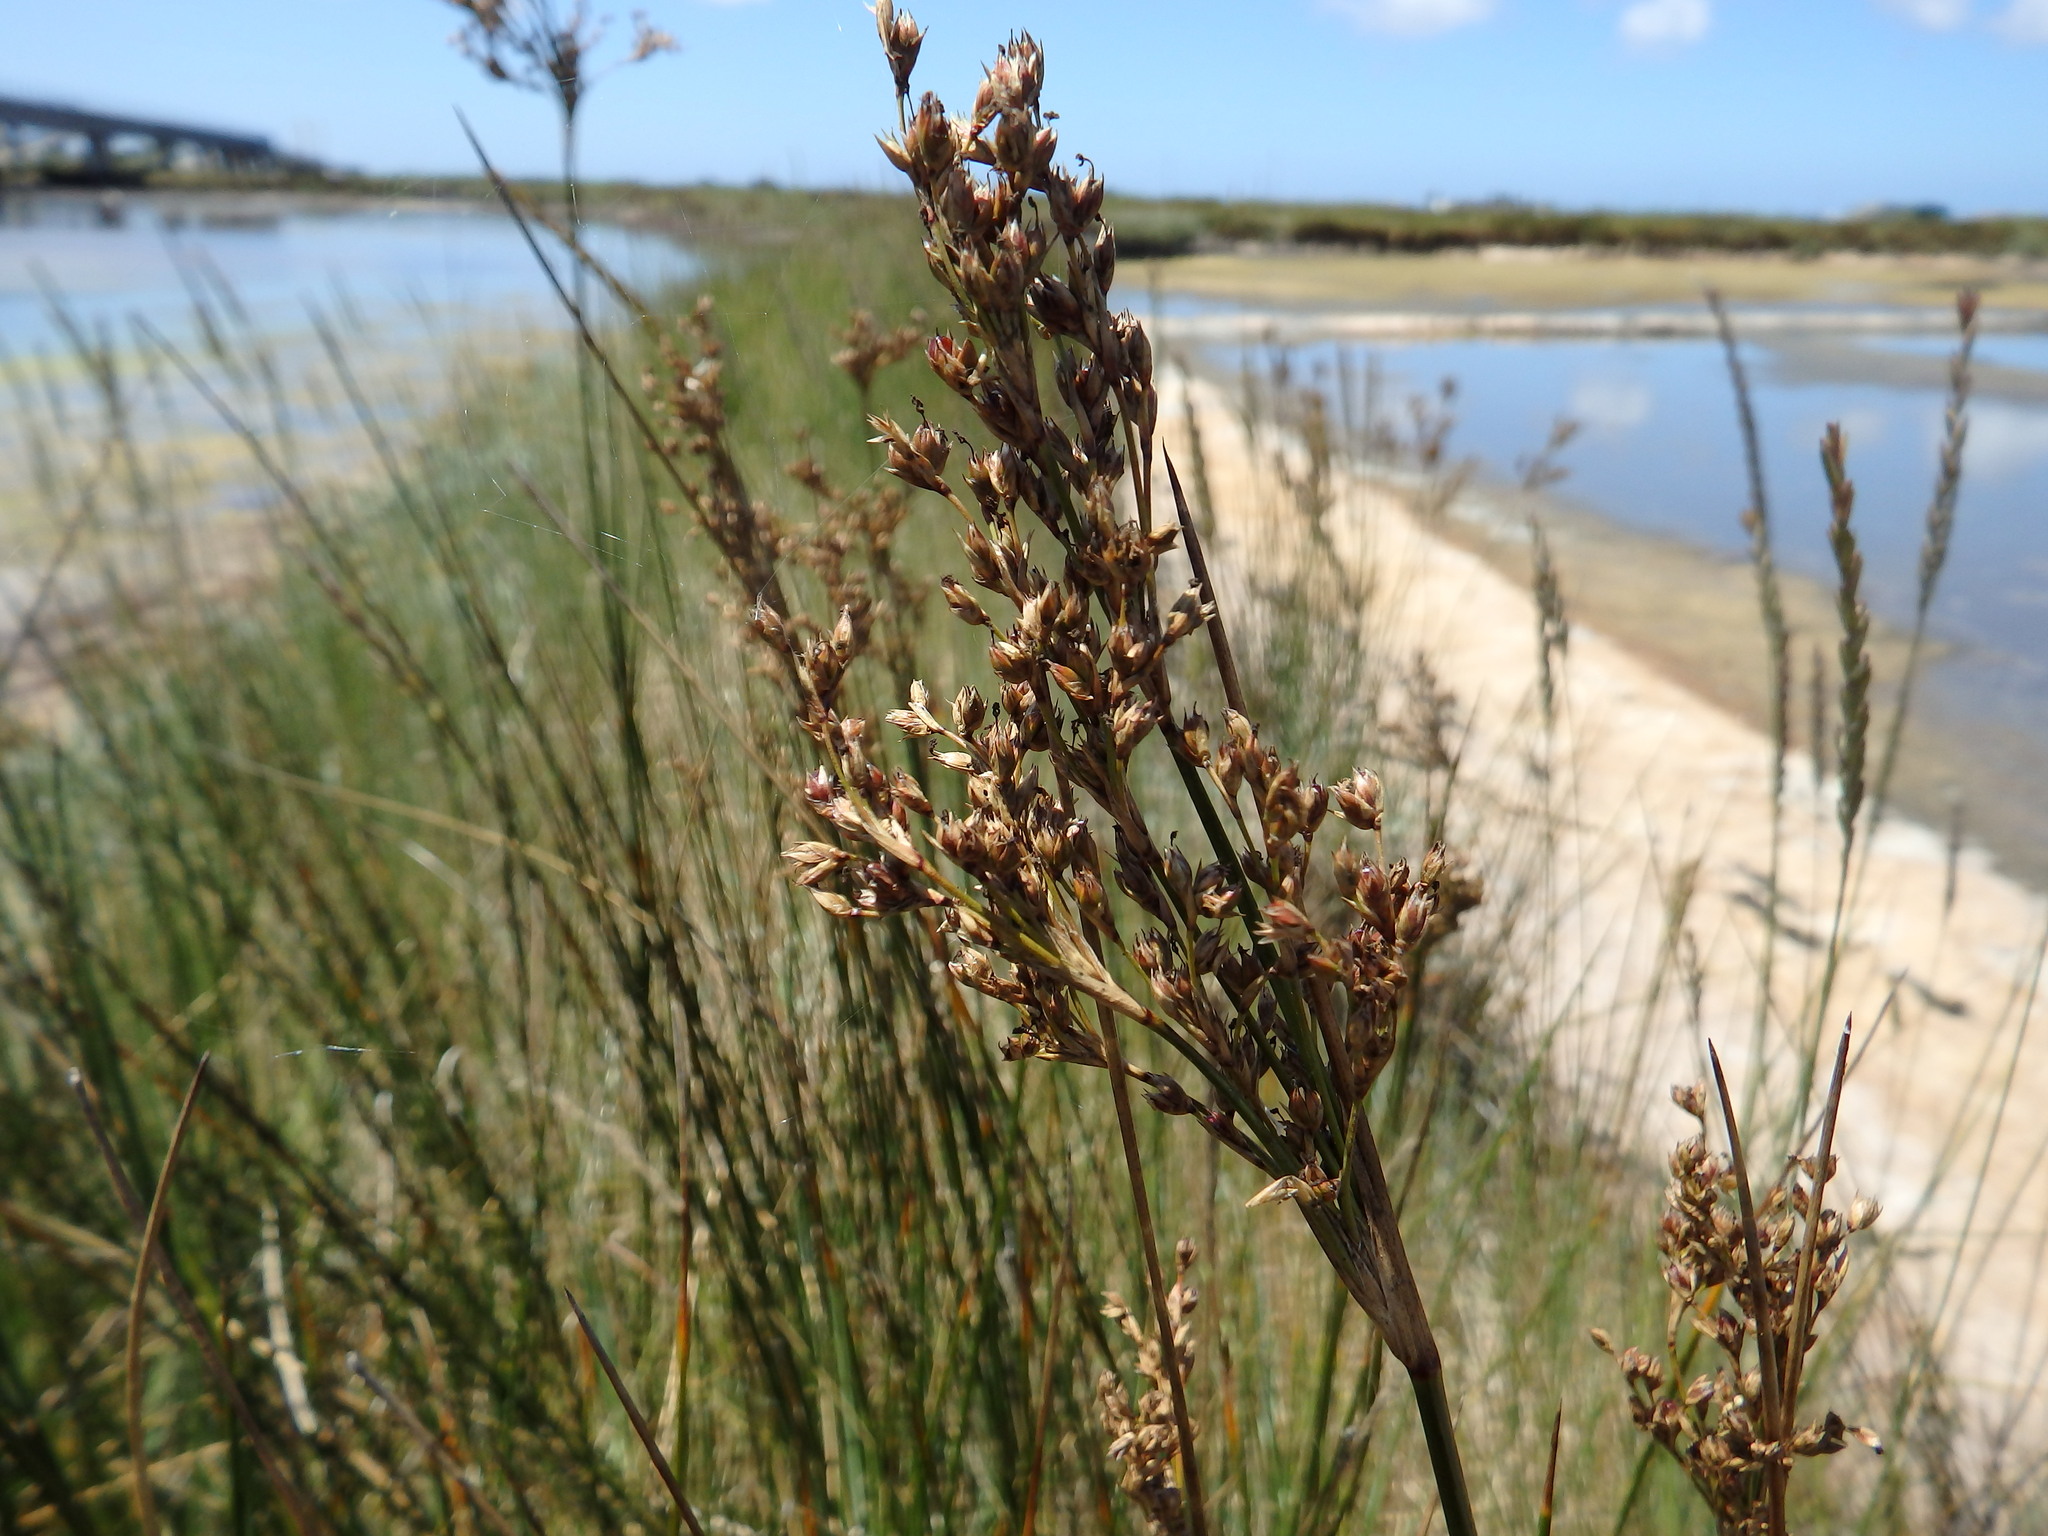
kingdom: Plantae
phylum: Tracheophyta
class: Liliopsida
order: Poales
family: Juncaceae
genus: Juncus
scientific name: Juncus maritimus
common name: Sea rush
